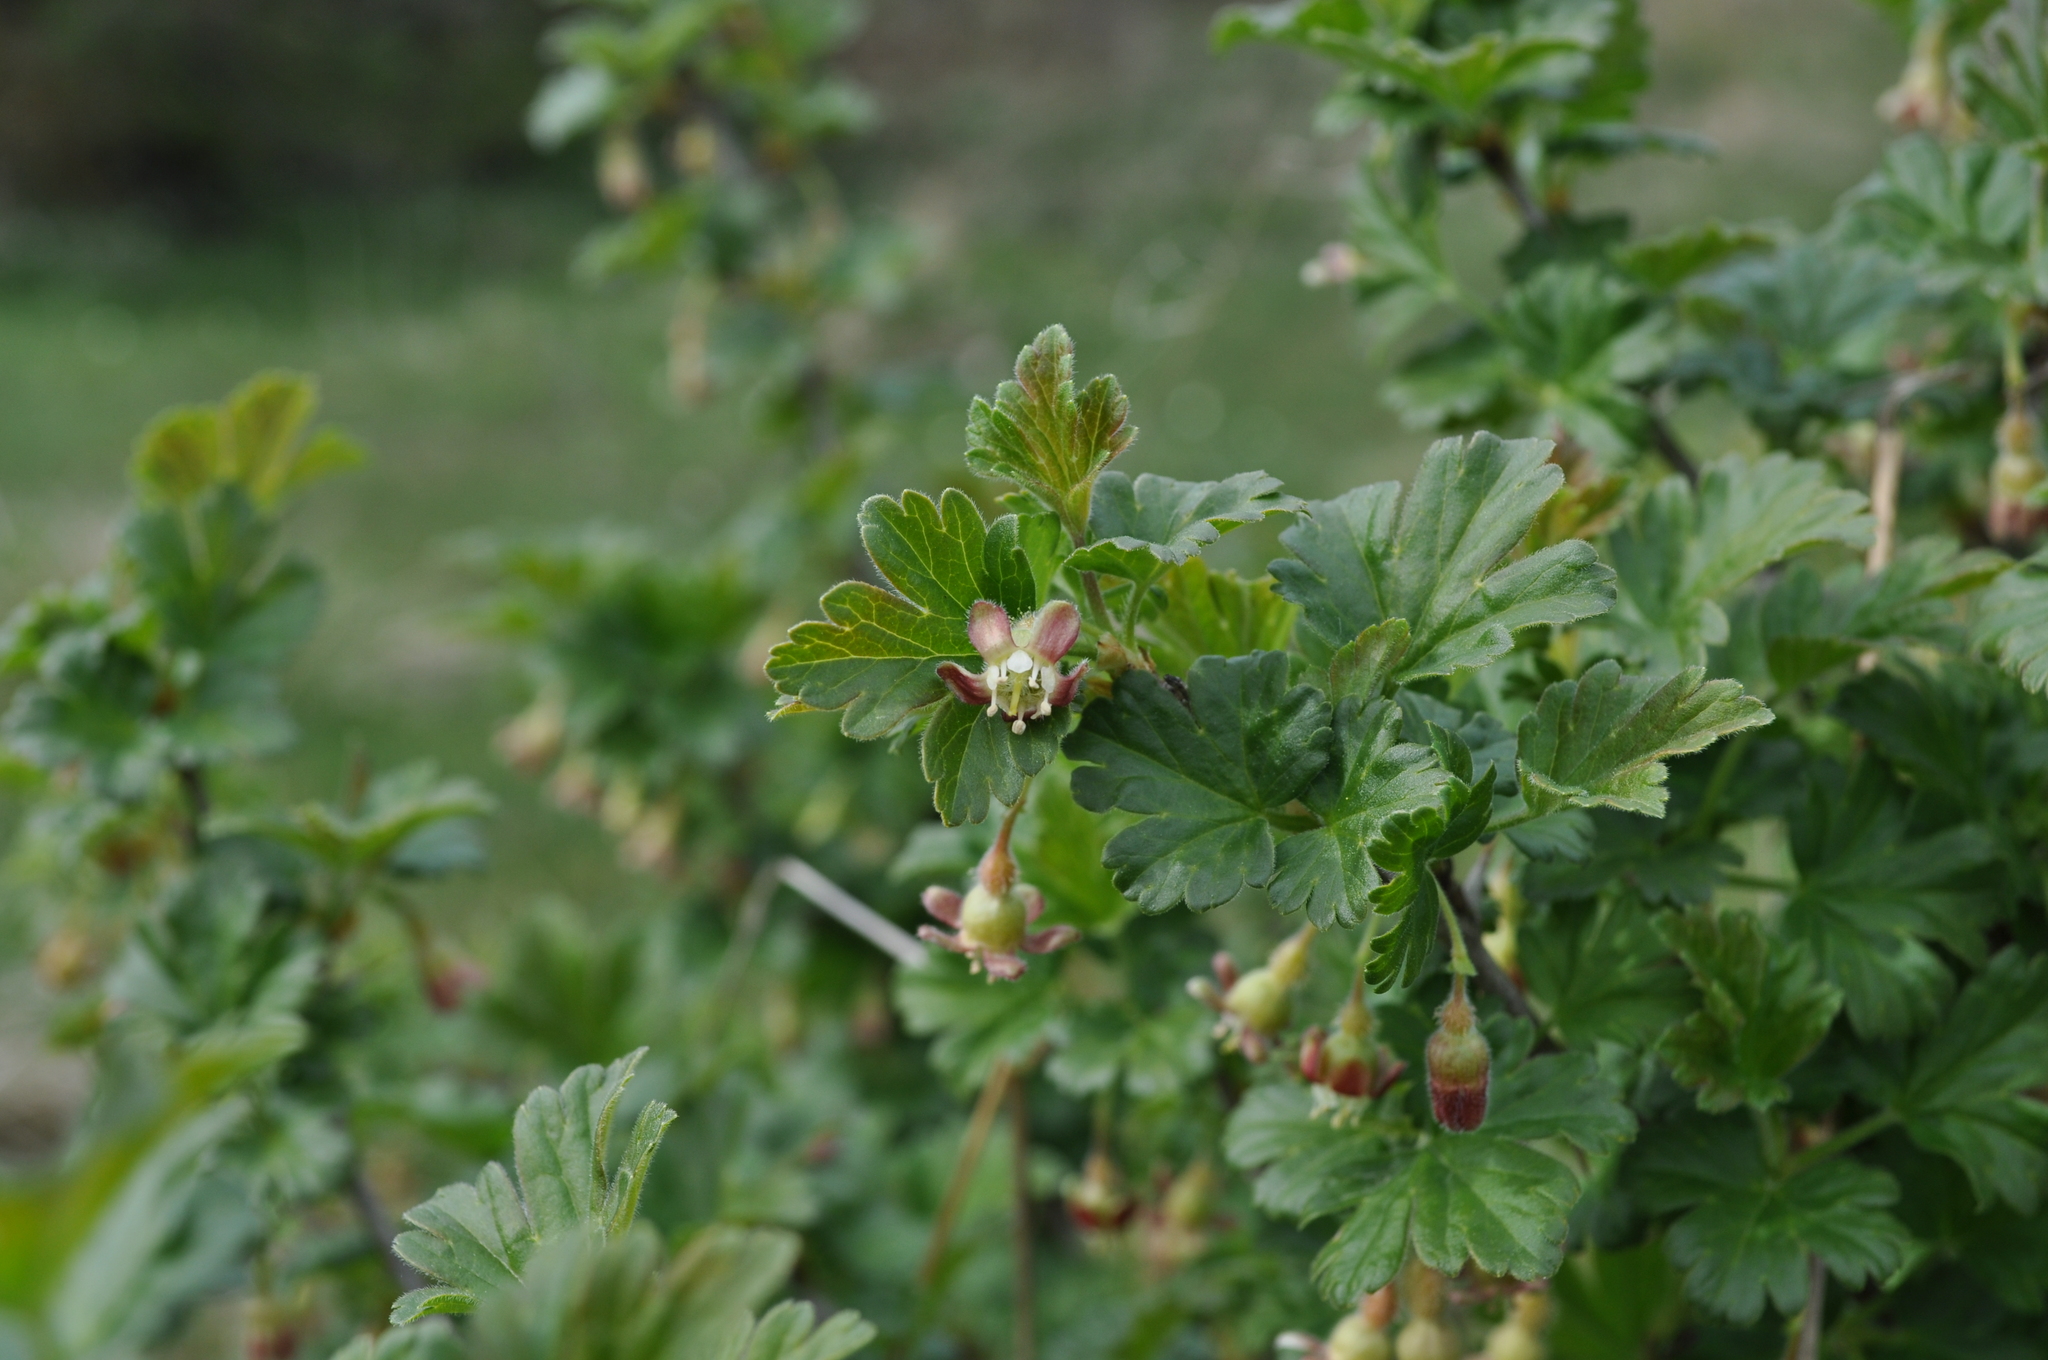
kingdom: Plantae
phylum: Tracheophyta
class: Magnoliopsida
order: Saxifragales
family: Grossulariaceae
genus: Ribes
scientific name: Ribes uva-crispa
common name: Gooseberry
